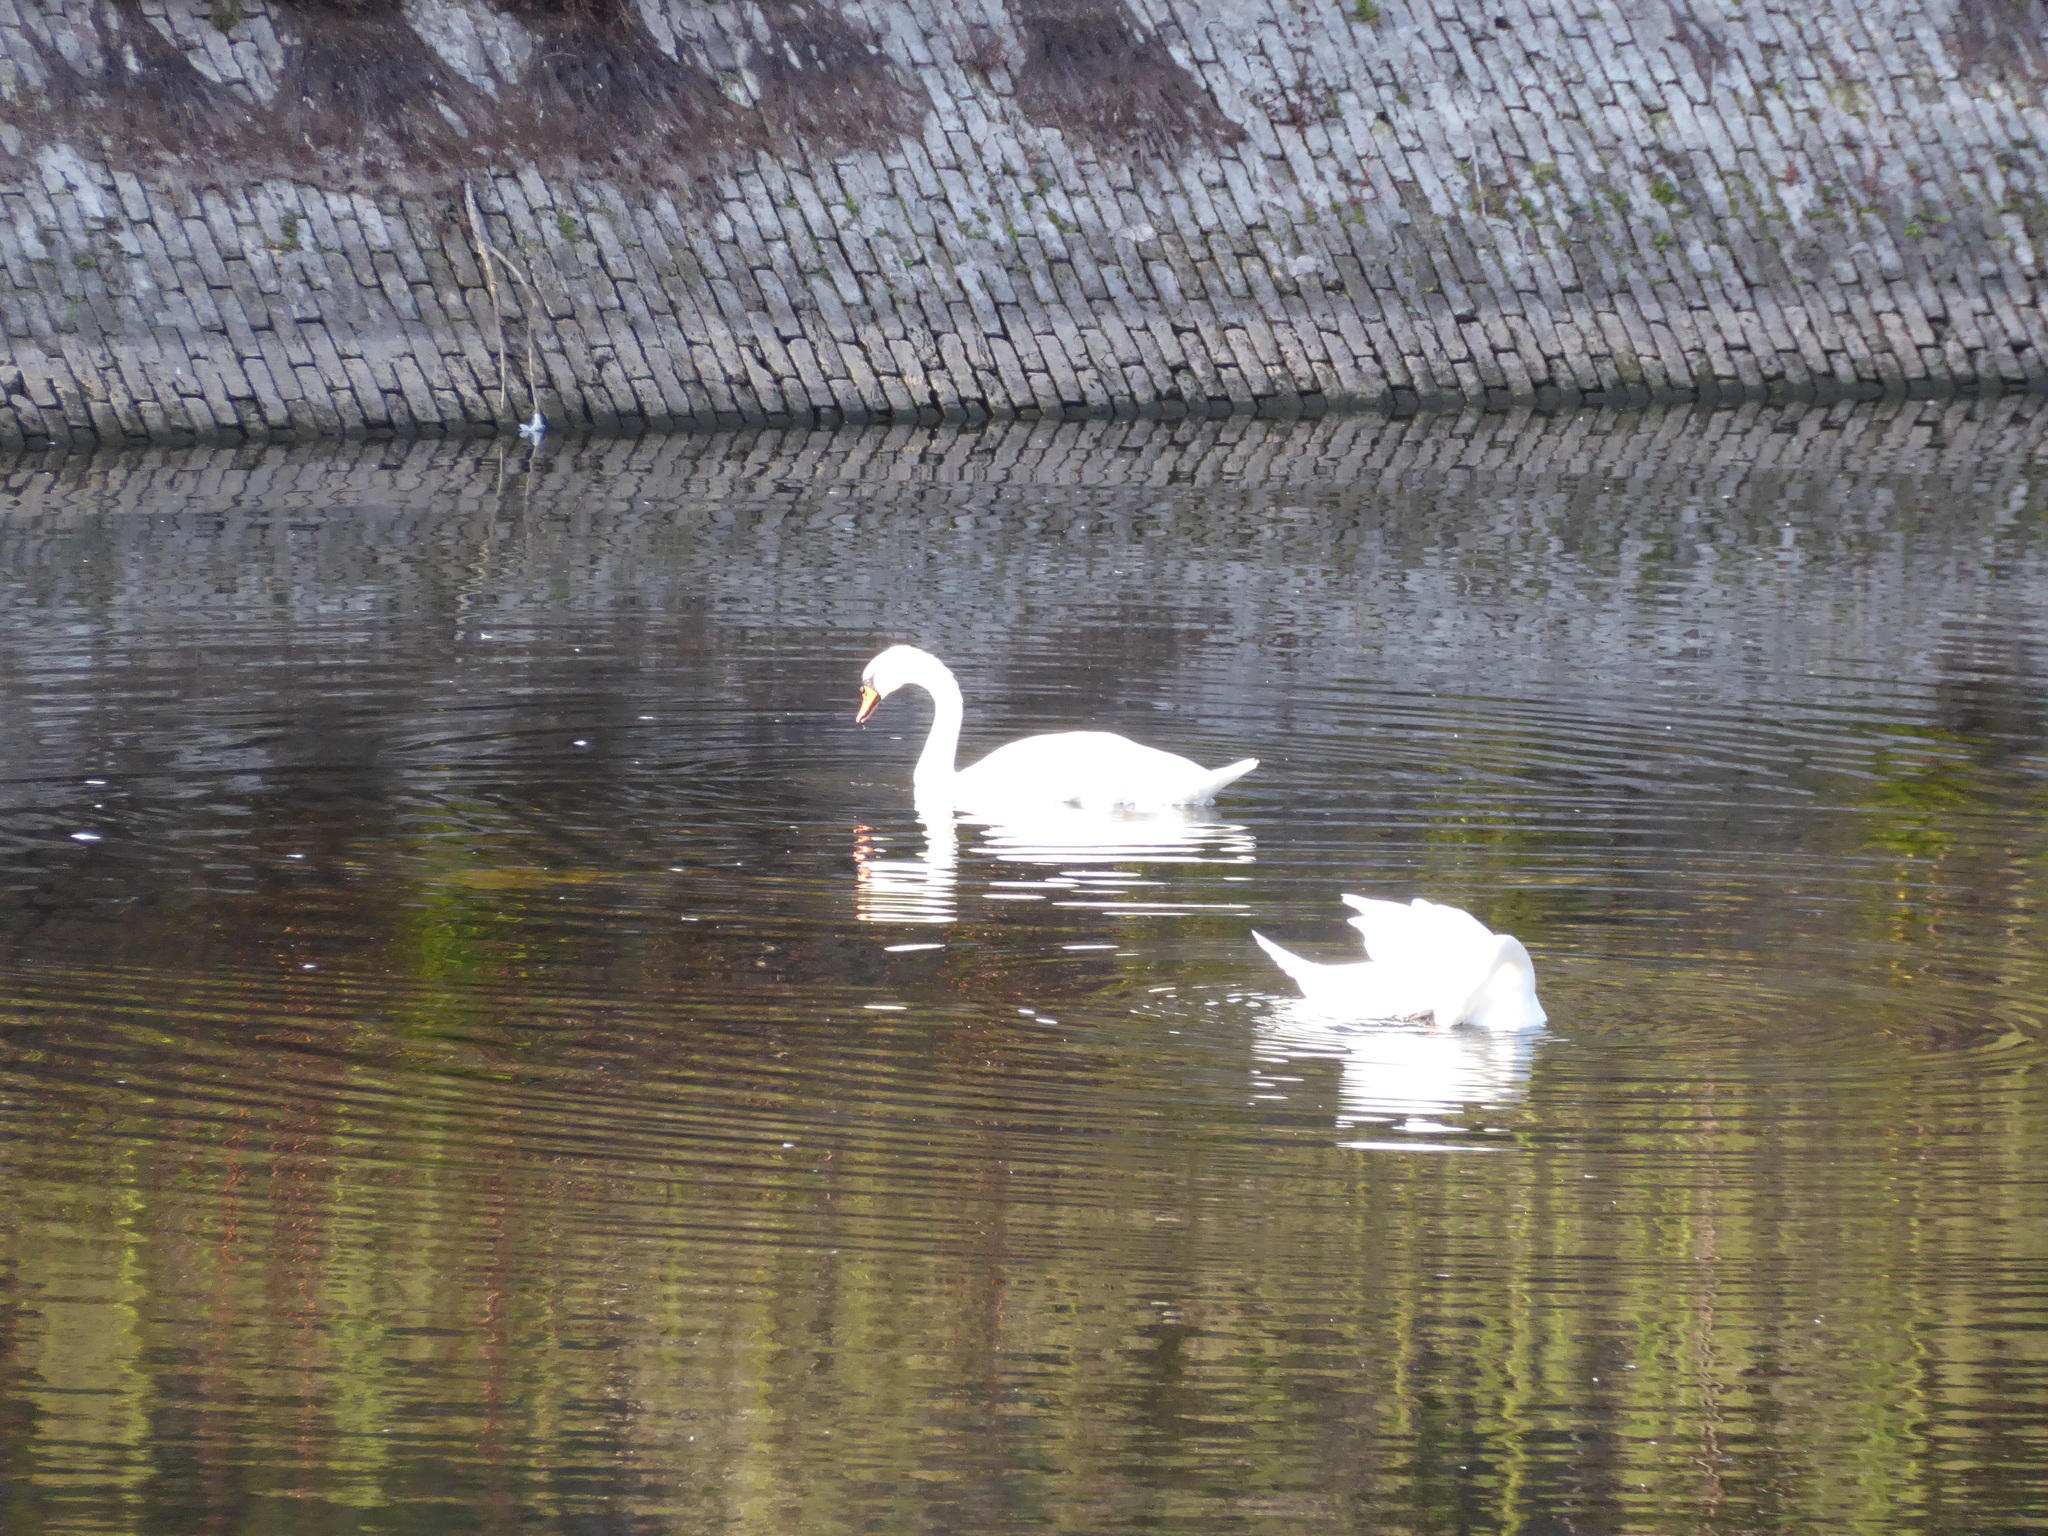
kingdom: Animalia
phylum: Chordata
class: Aves
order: Anseriformes
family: Anatidae
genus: Cygnus
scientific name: Cygnus olor
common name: Mute swan
